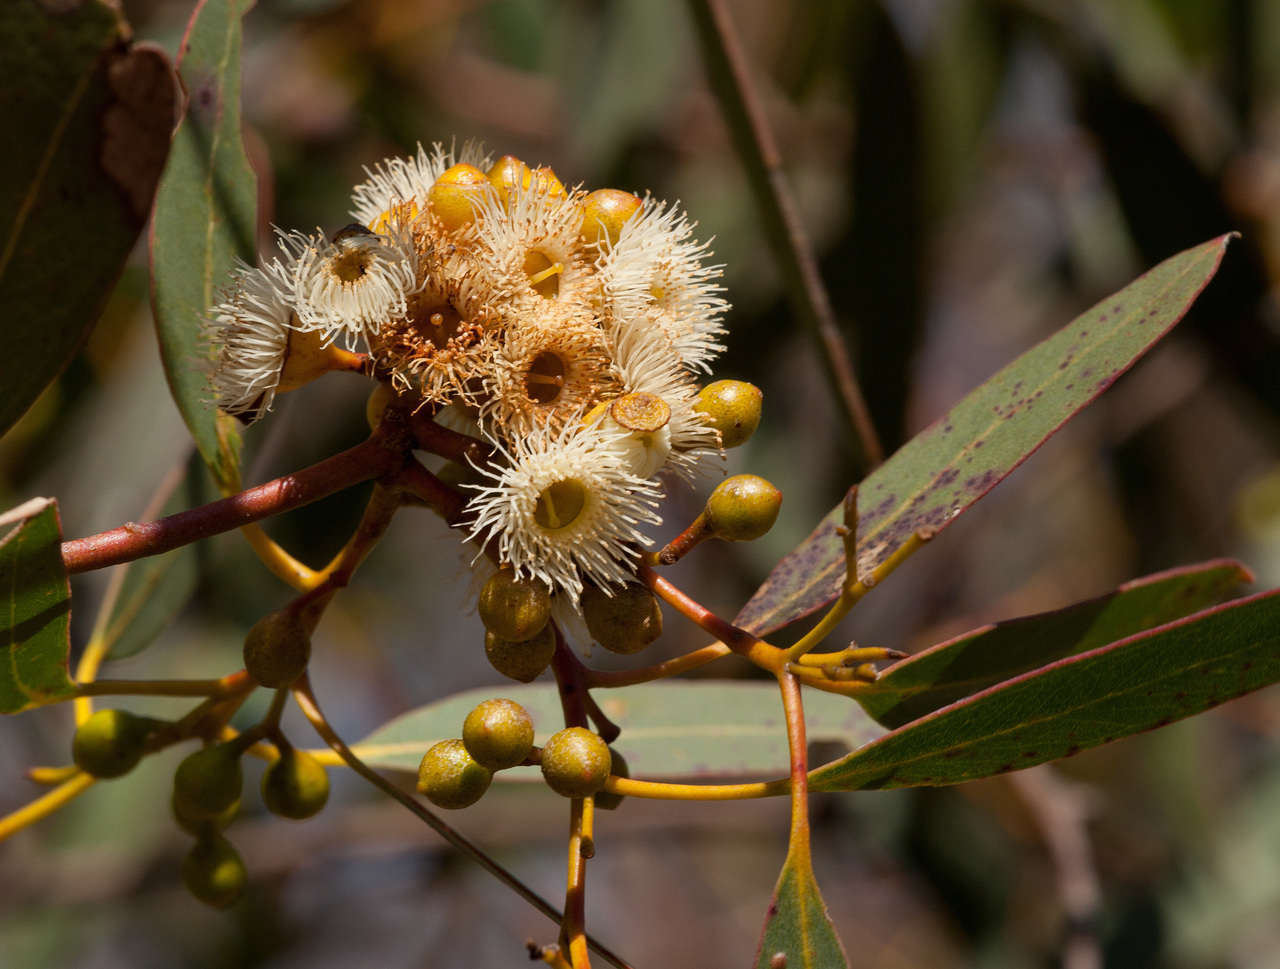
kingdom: Plantae
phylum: Tracheophyta
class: Magnoliopsida
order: Myrtales
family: Myrtaceae
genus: Eucalyptus
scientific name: Eucalyptus leucoxylon
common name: Blue gum
